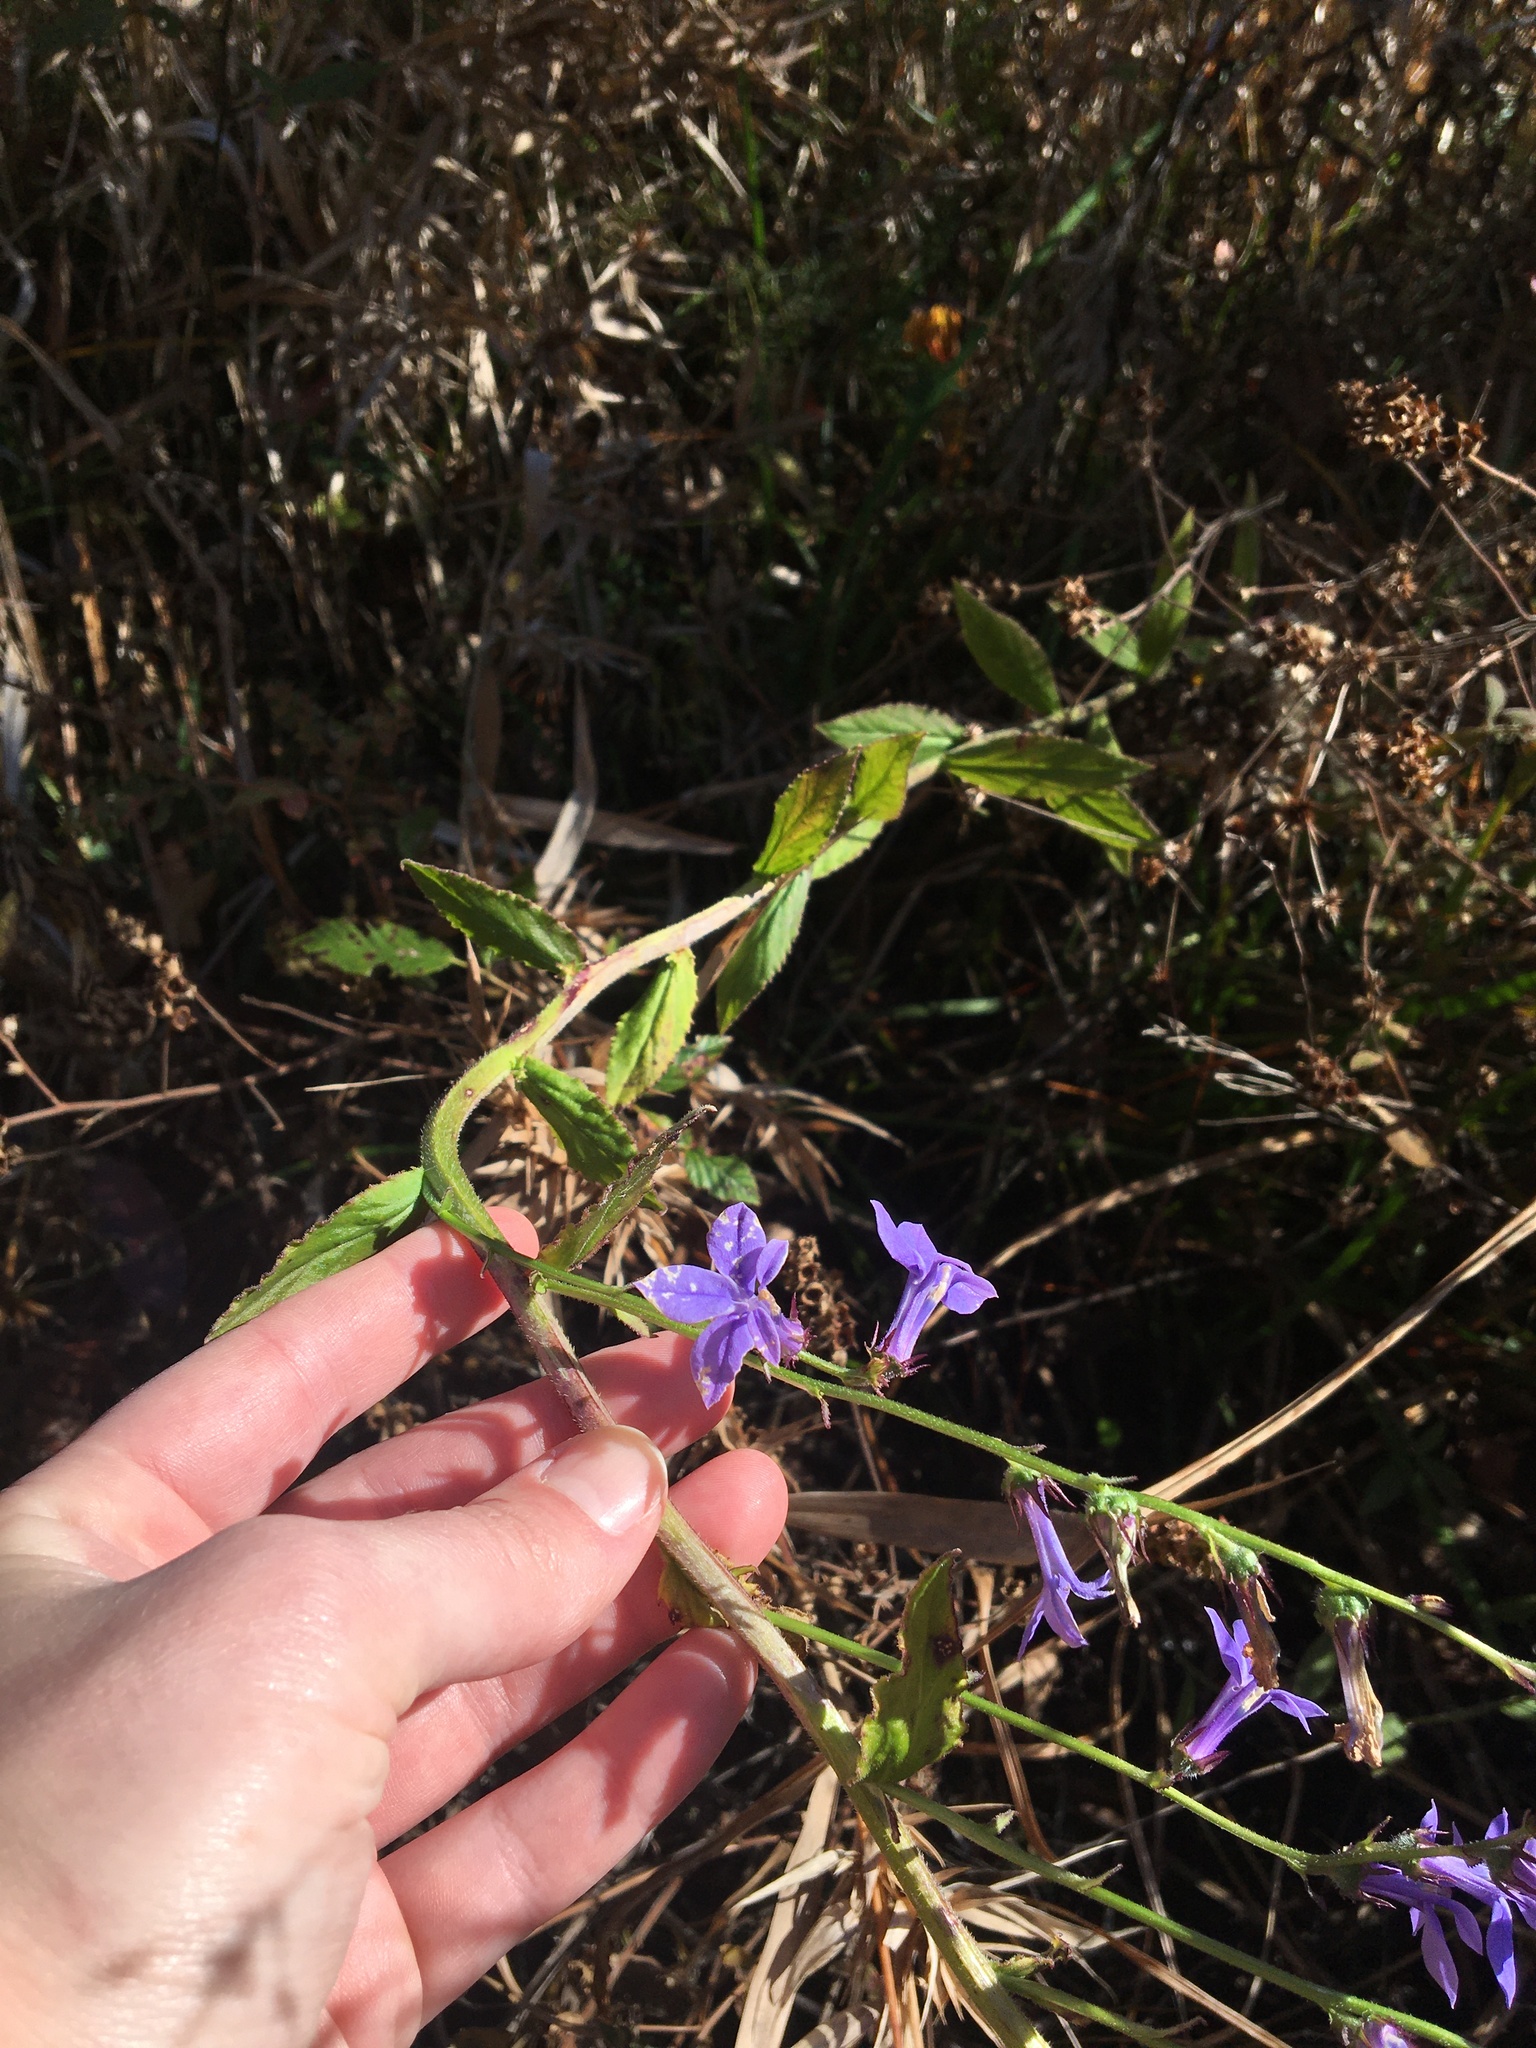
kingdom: Plantae
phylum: Tracheophyta
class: Magnoliopsida
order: Asterales
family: Campanulaceae
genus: Lobelia
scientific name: Lobelia puberula
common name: Purple dewdrop
